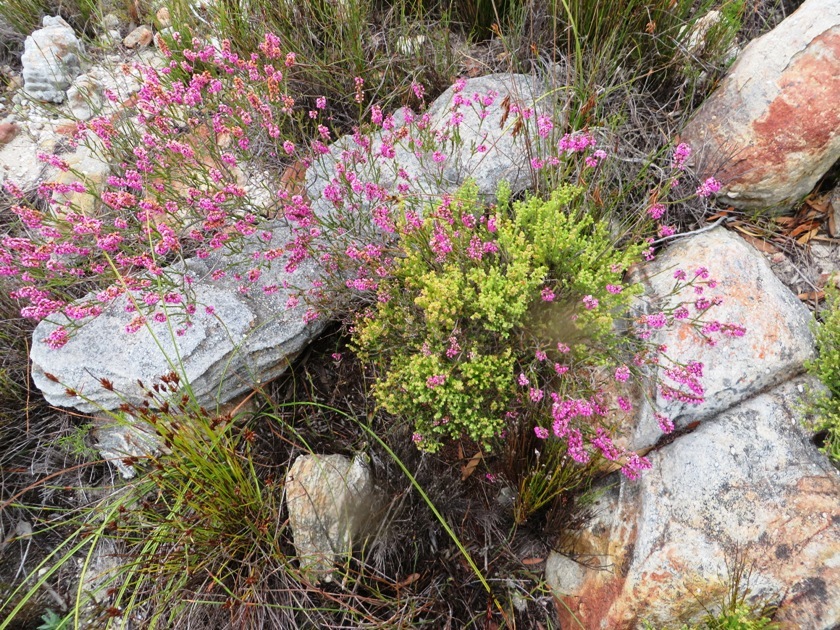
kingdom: Plantae
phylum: Tracheophyta
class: Magnoliopsida
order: Ericales
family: Ericaceae
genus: Erica
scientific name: Erica pulchella
